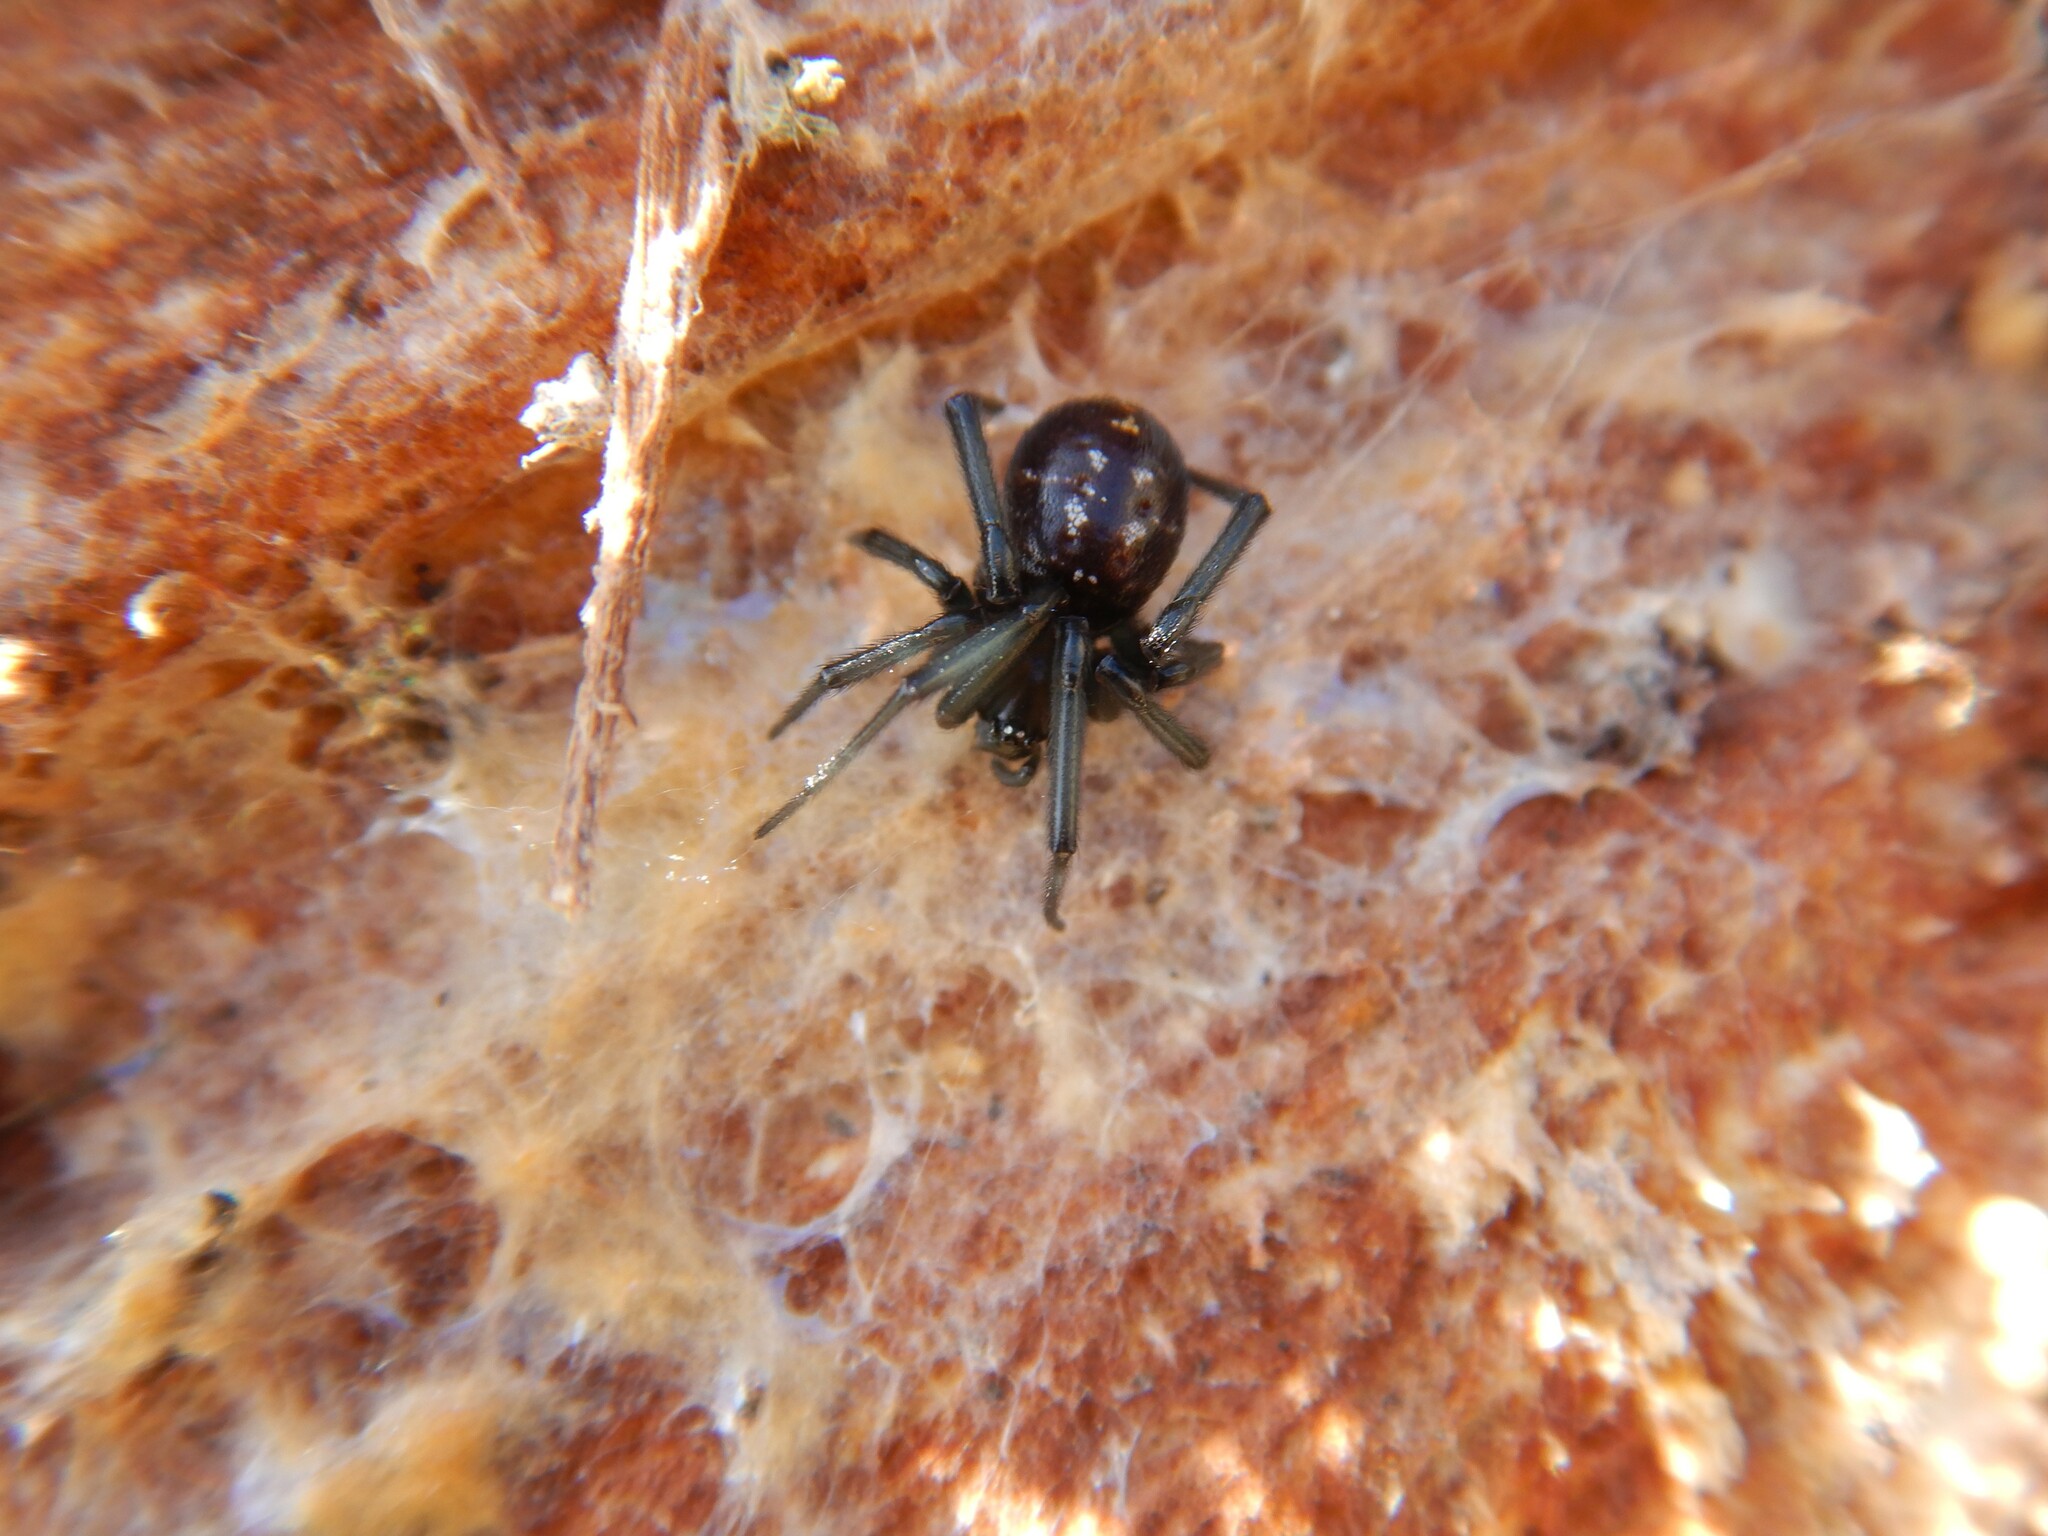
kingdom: Animalia
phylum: Arthropoda
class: Arachnida
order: Araneae
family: Theridiidae
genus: Steatoda
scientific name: Steatoda capensis
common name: Cobweb weaver
